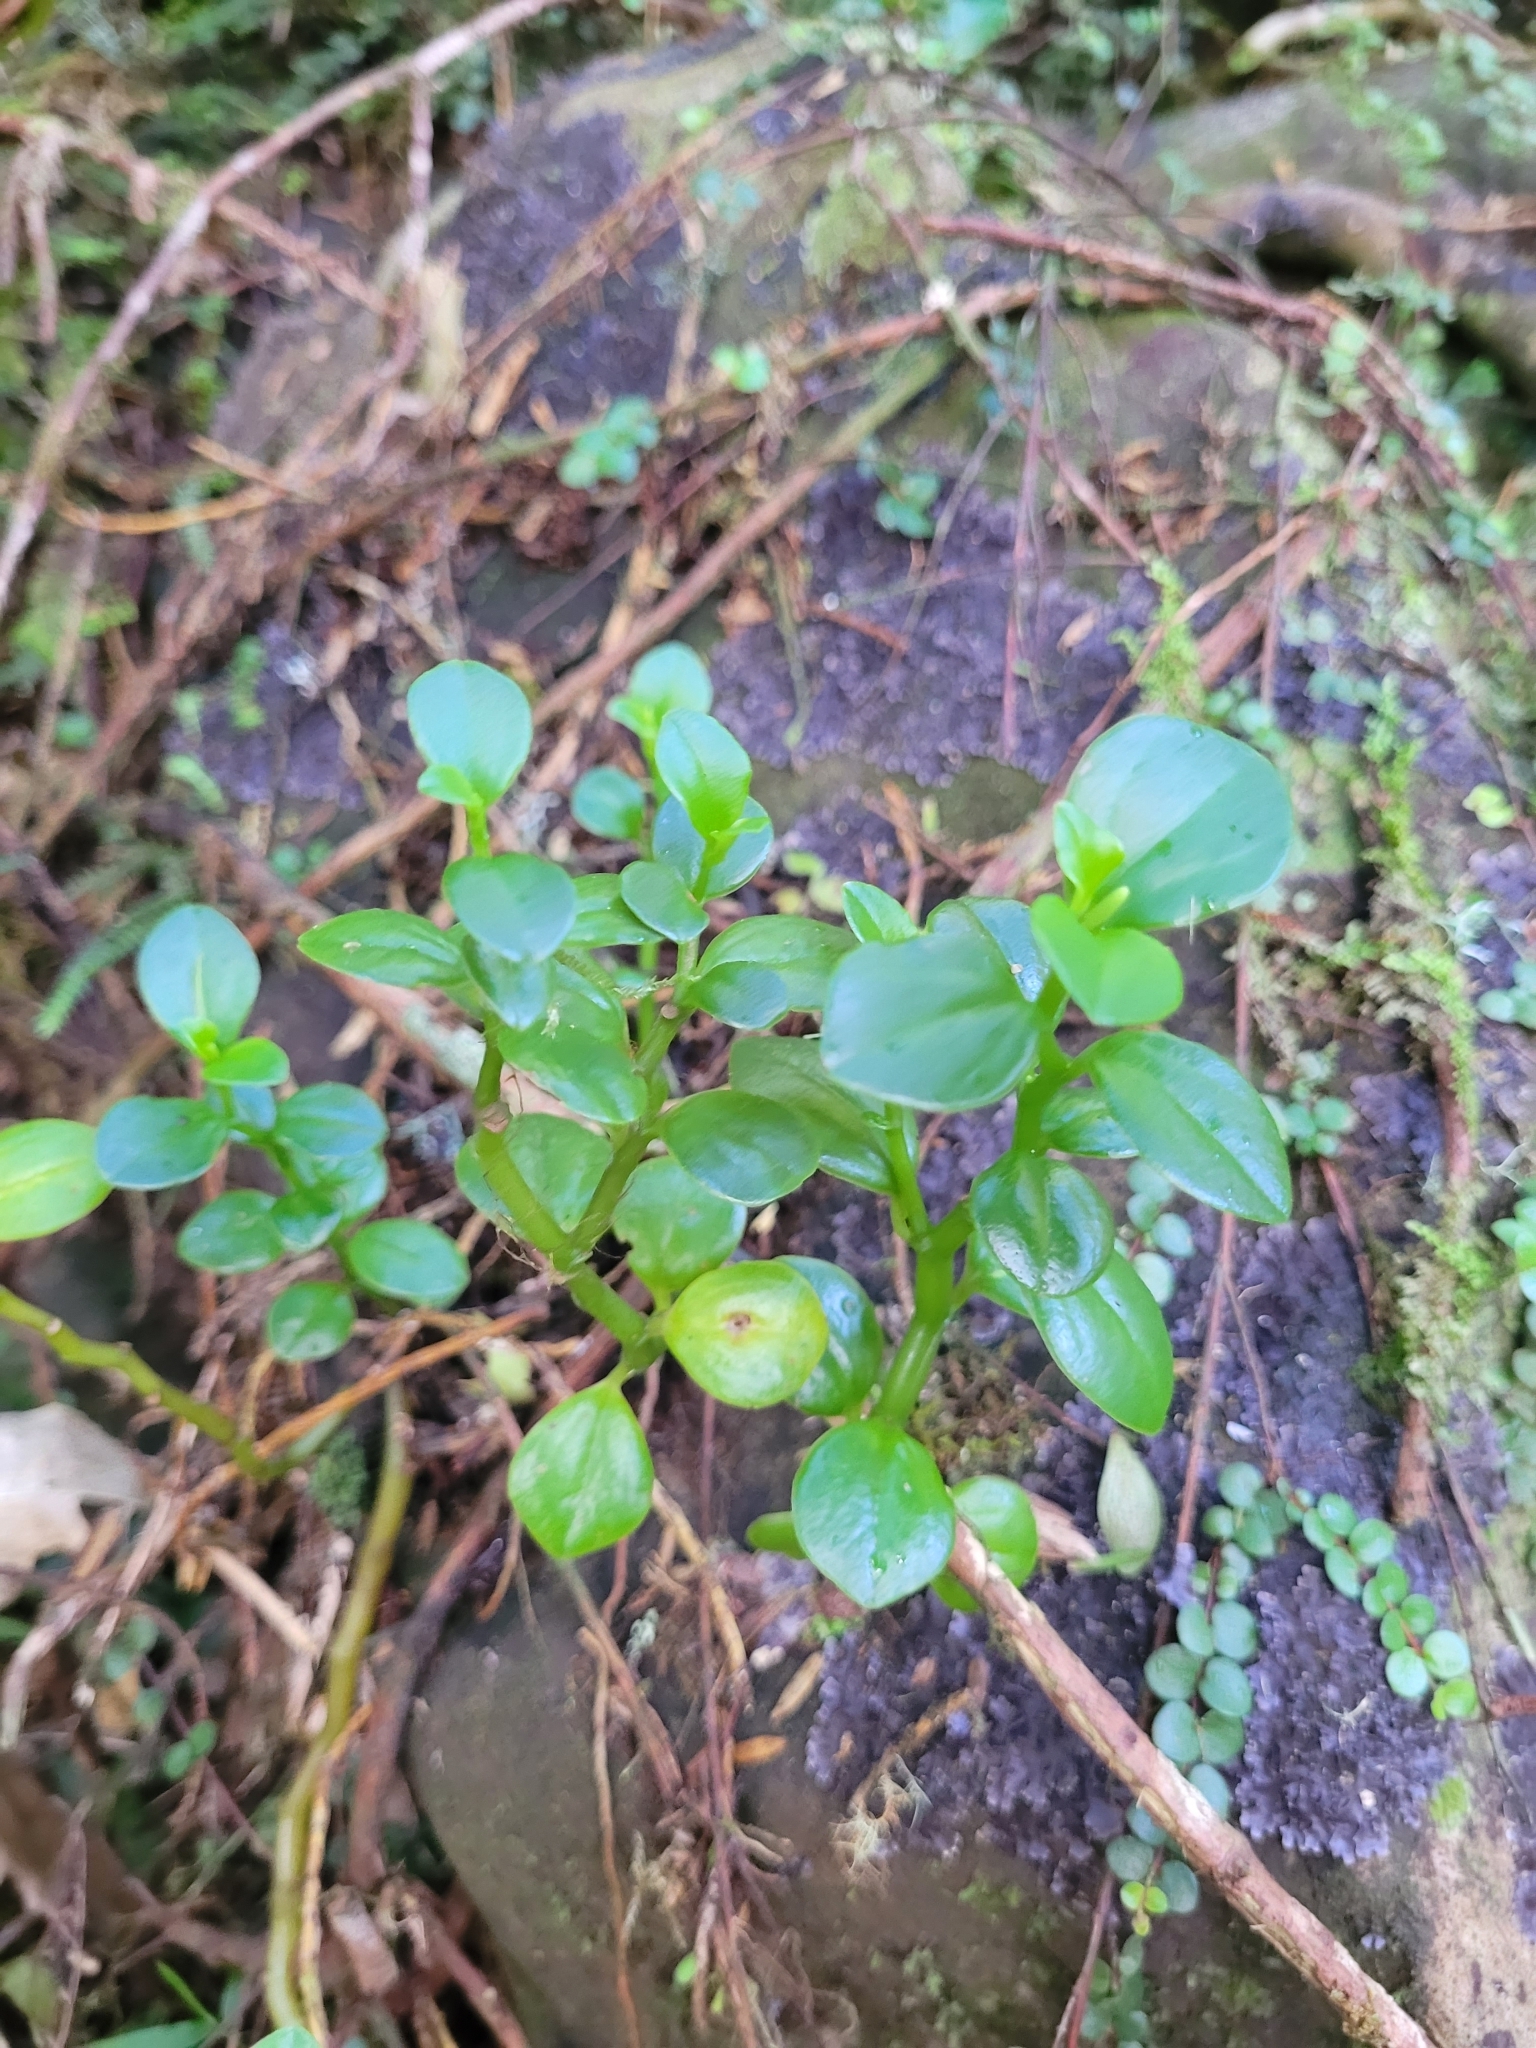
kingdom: Plantae
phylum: Tracheophyta
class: Magnoliopsida
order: Piperales
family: Piperaceae
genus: Peperomia
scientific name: Peperomia urvilleana
